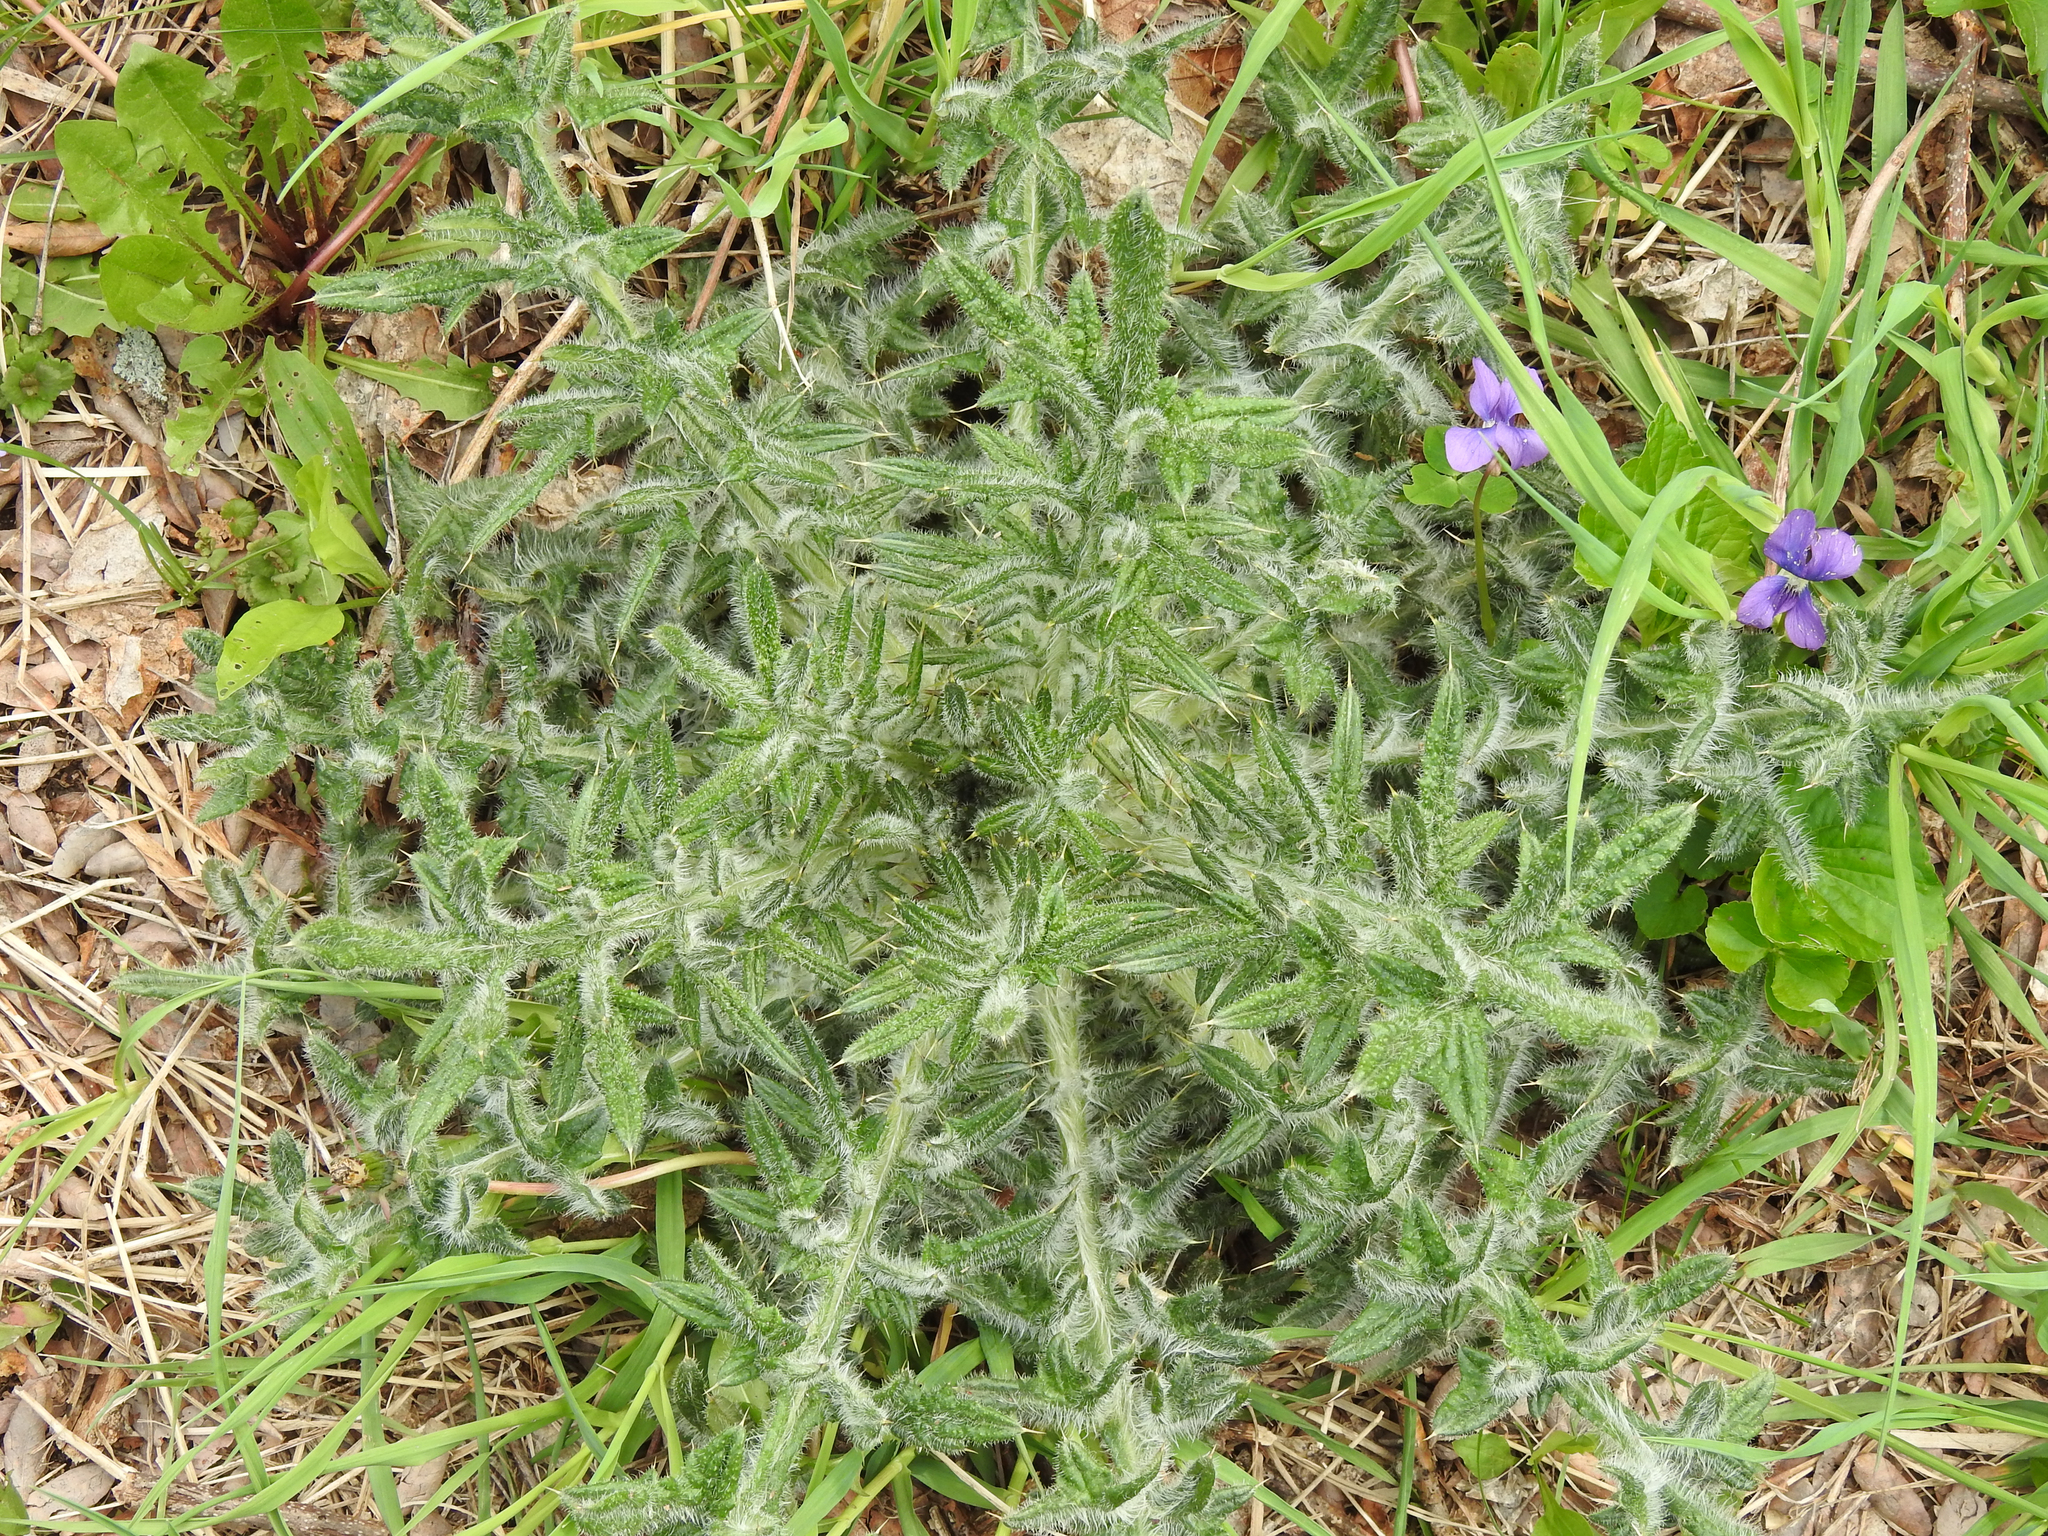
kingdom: Plantae
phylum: Tracheophyta
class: Magnoliopsida
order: Asterales
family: Asteraceae
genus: Cirsium
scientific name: Cirsium vulgare
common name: Bull thistle
